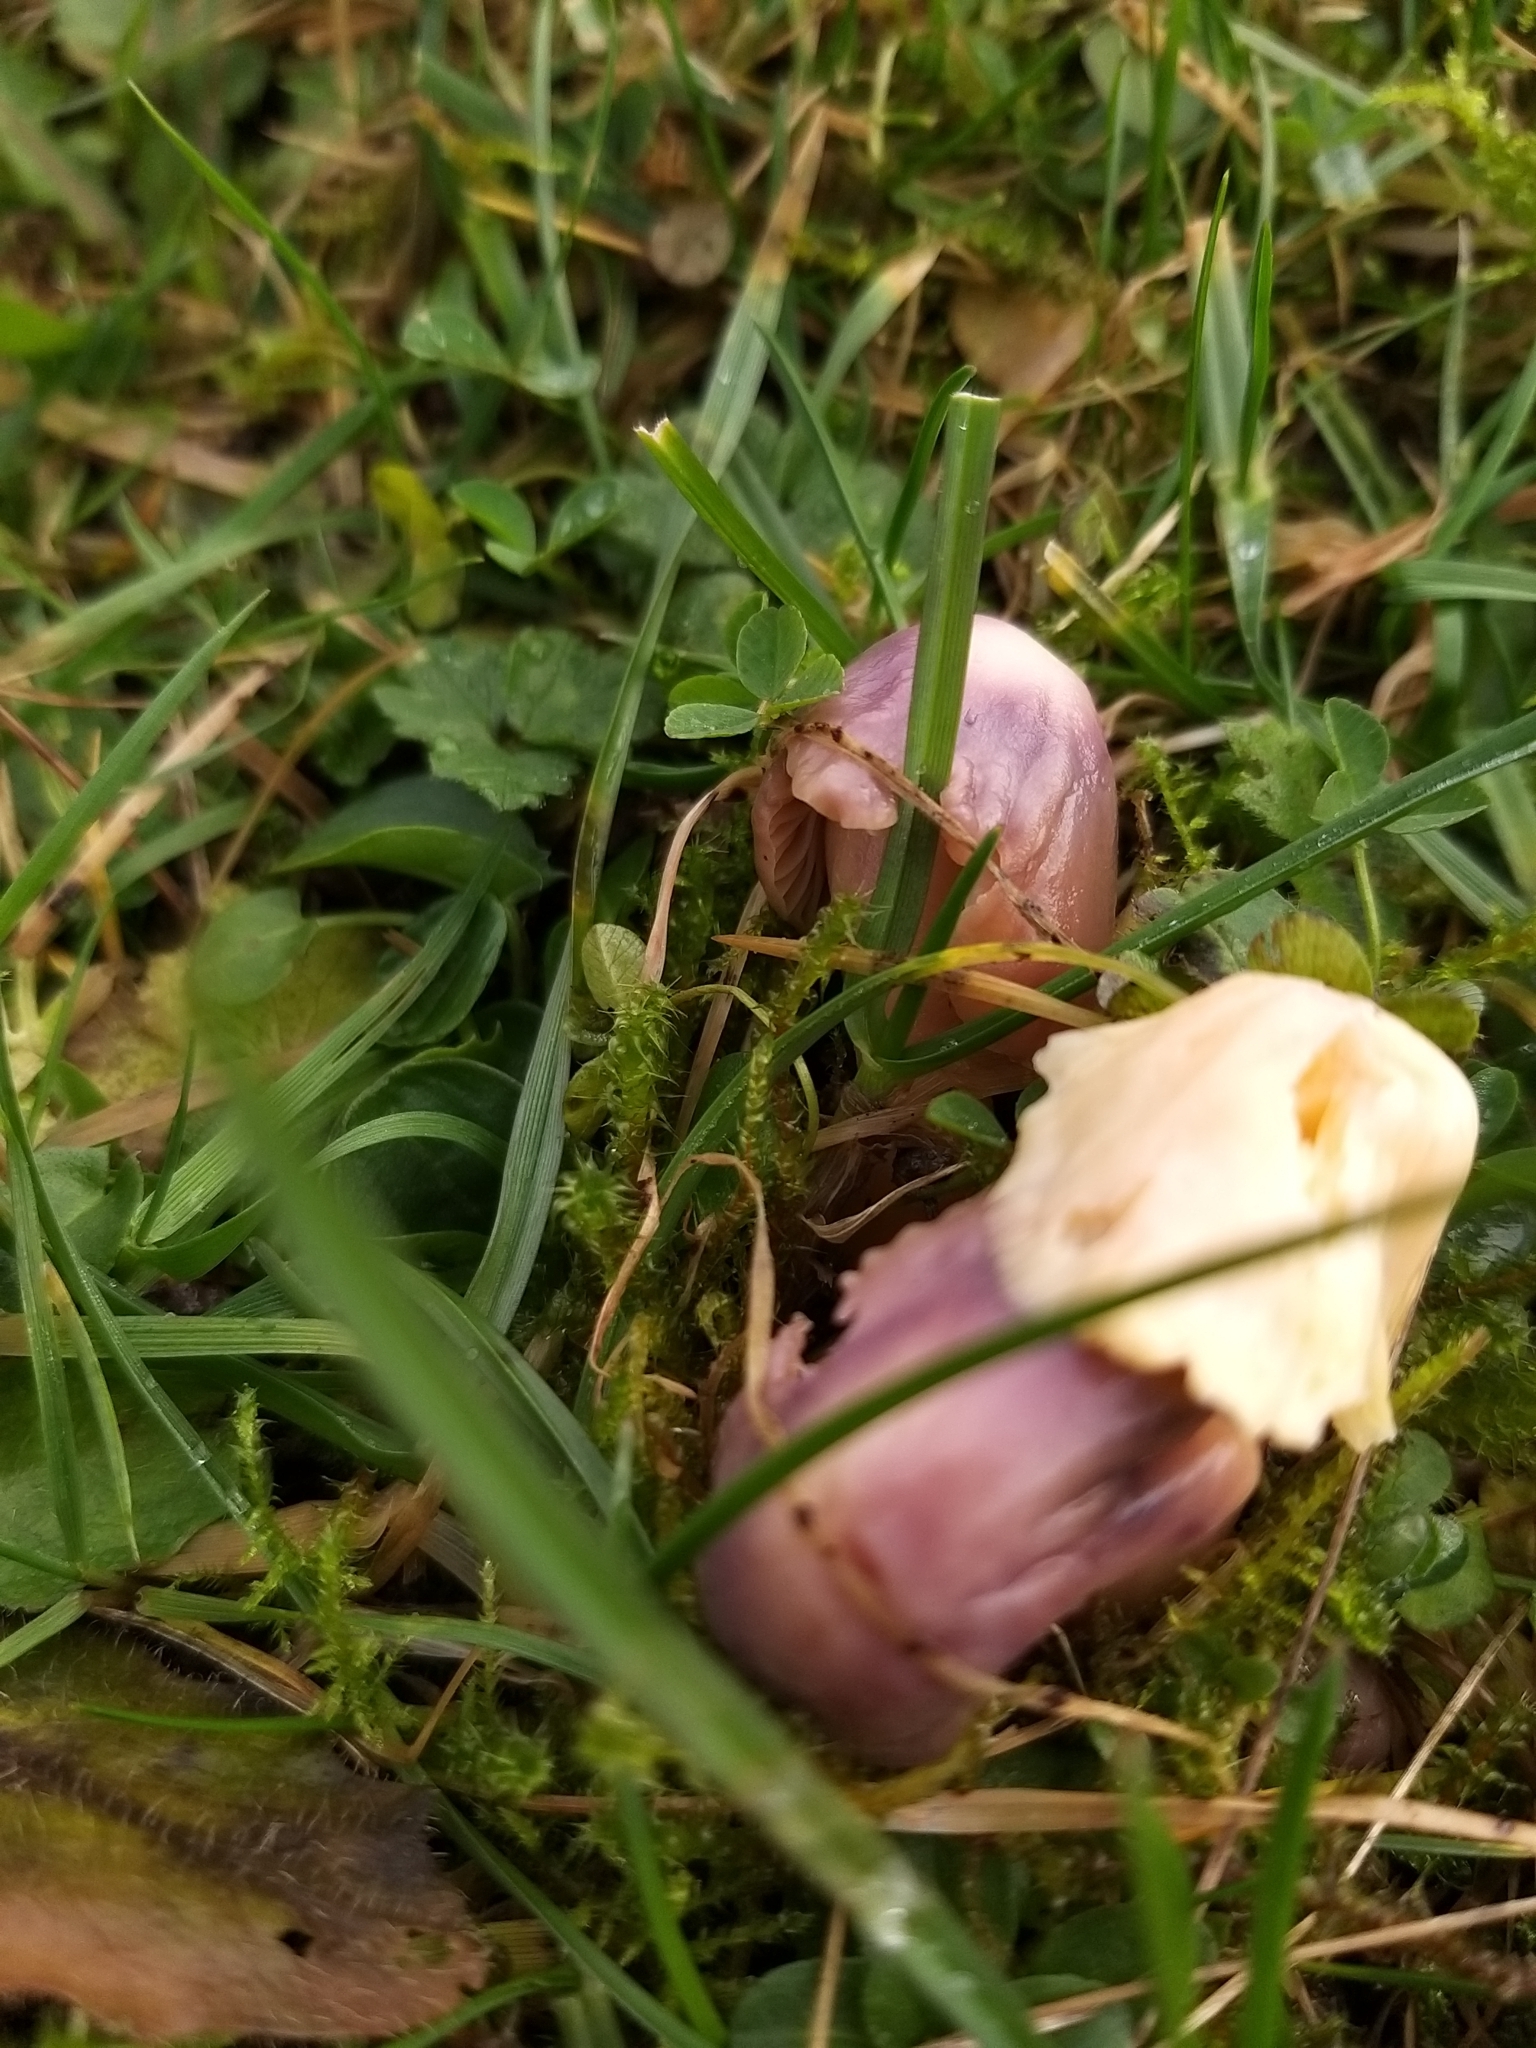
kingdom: Fungi
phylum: Basidiomycota
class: Agaricomycetes
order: Agaricales
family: Hygrophoraceae
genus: Gliophorus
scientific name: Gliophorus reginae
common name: Jubilee waxcap
